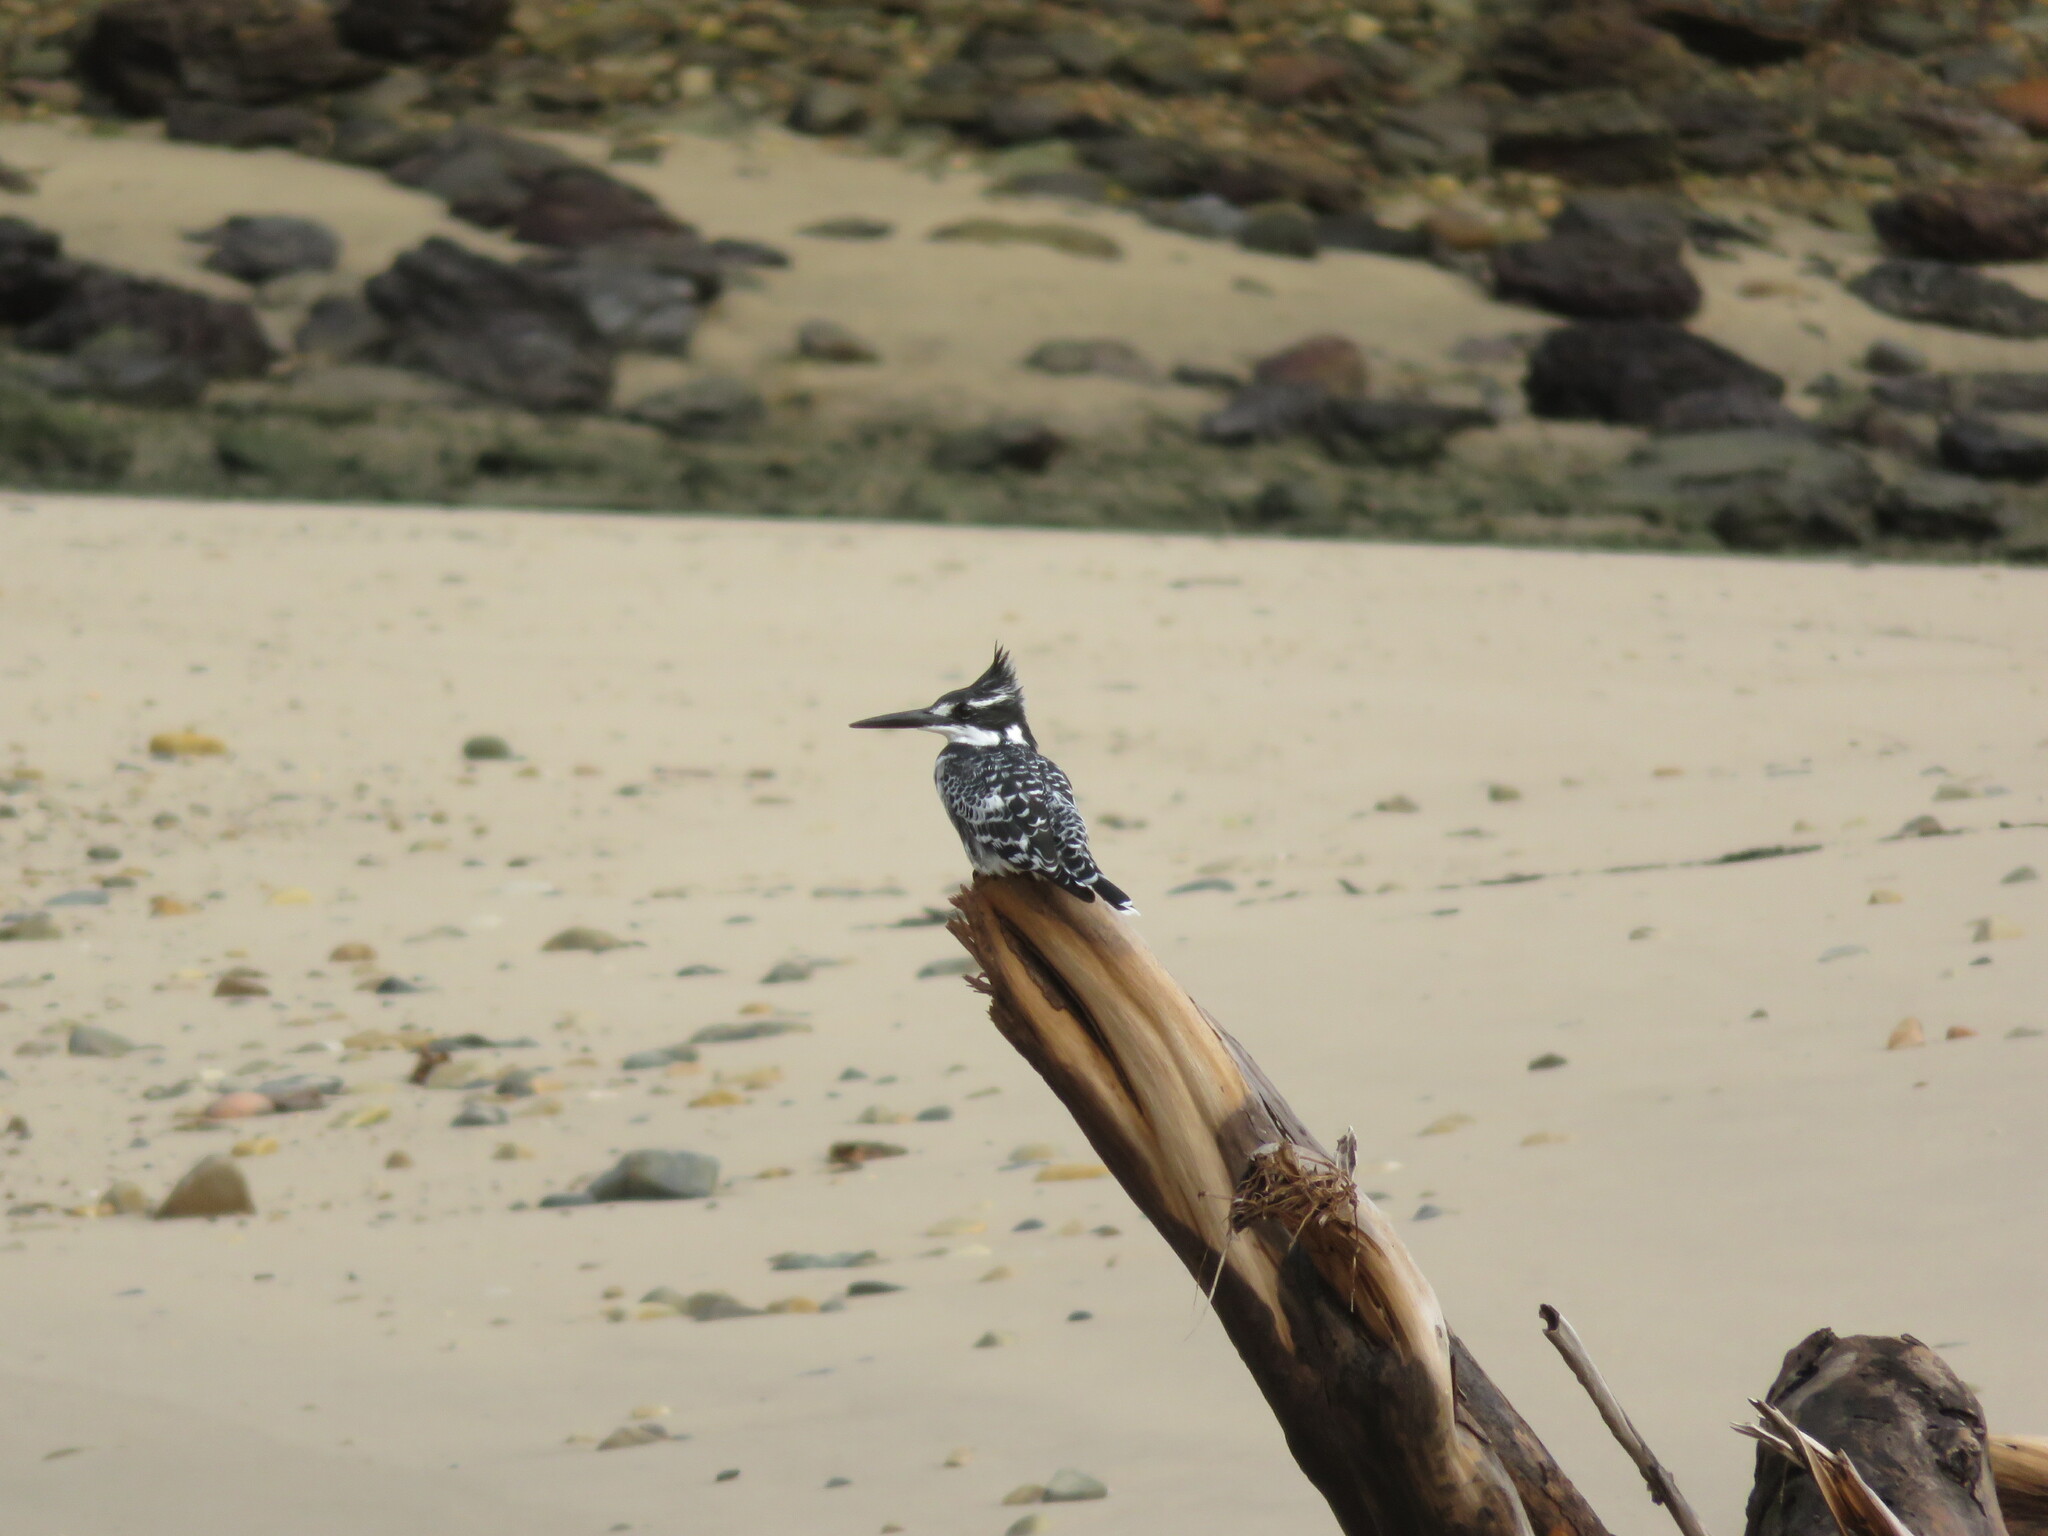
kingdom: Animalia
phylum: Chordata
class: Aves
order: Coraciiformes
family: Alcedinidae
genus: Ceryle
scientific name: Ceryle rudis
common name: Pied kingfisher
